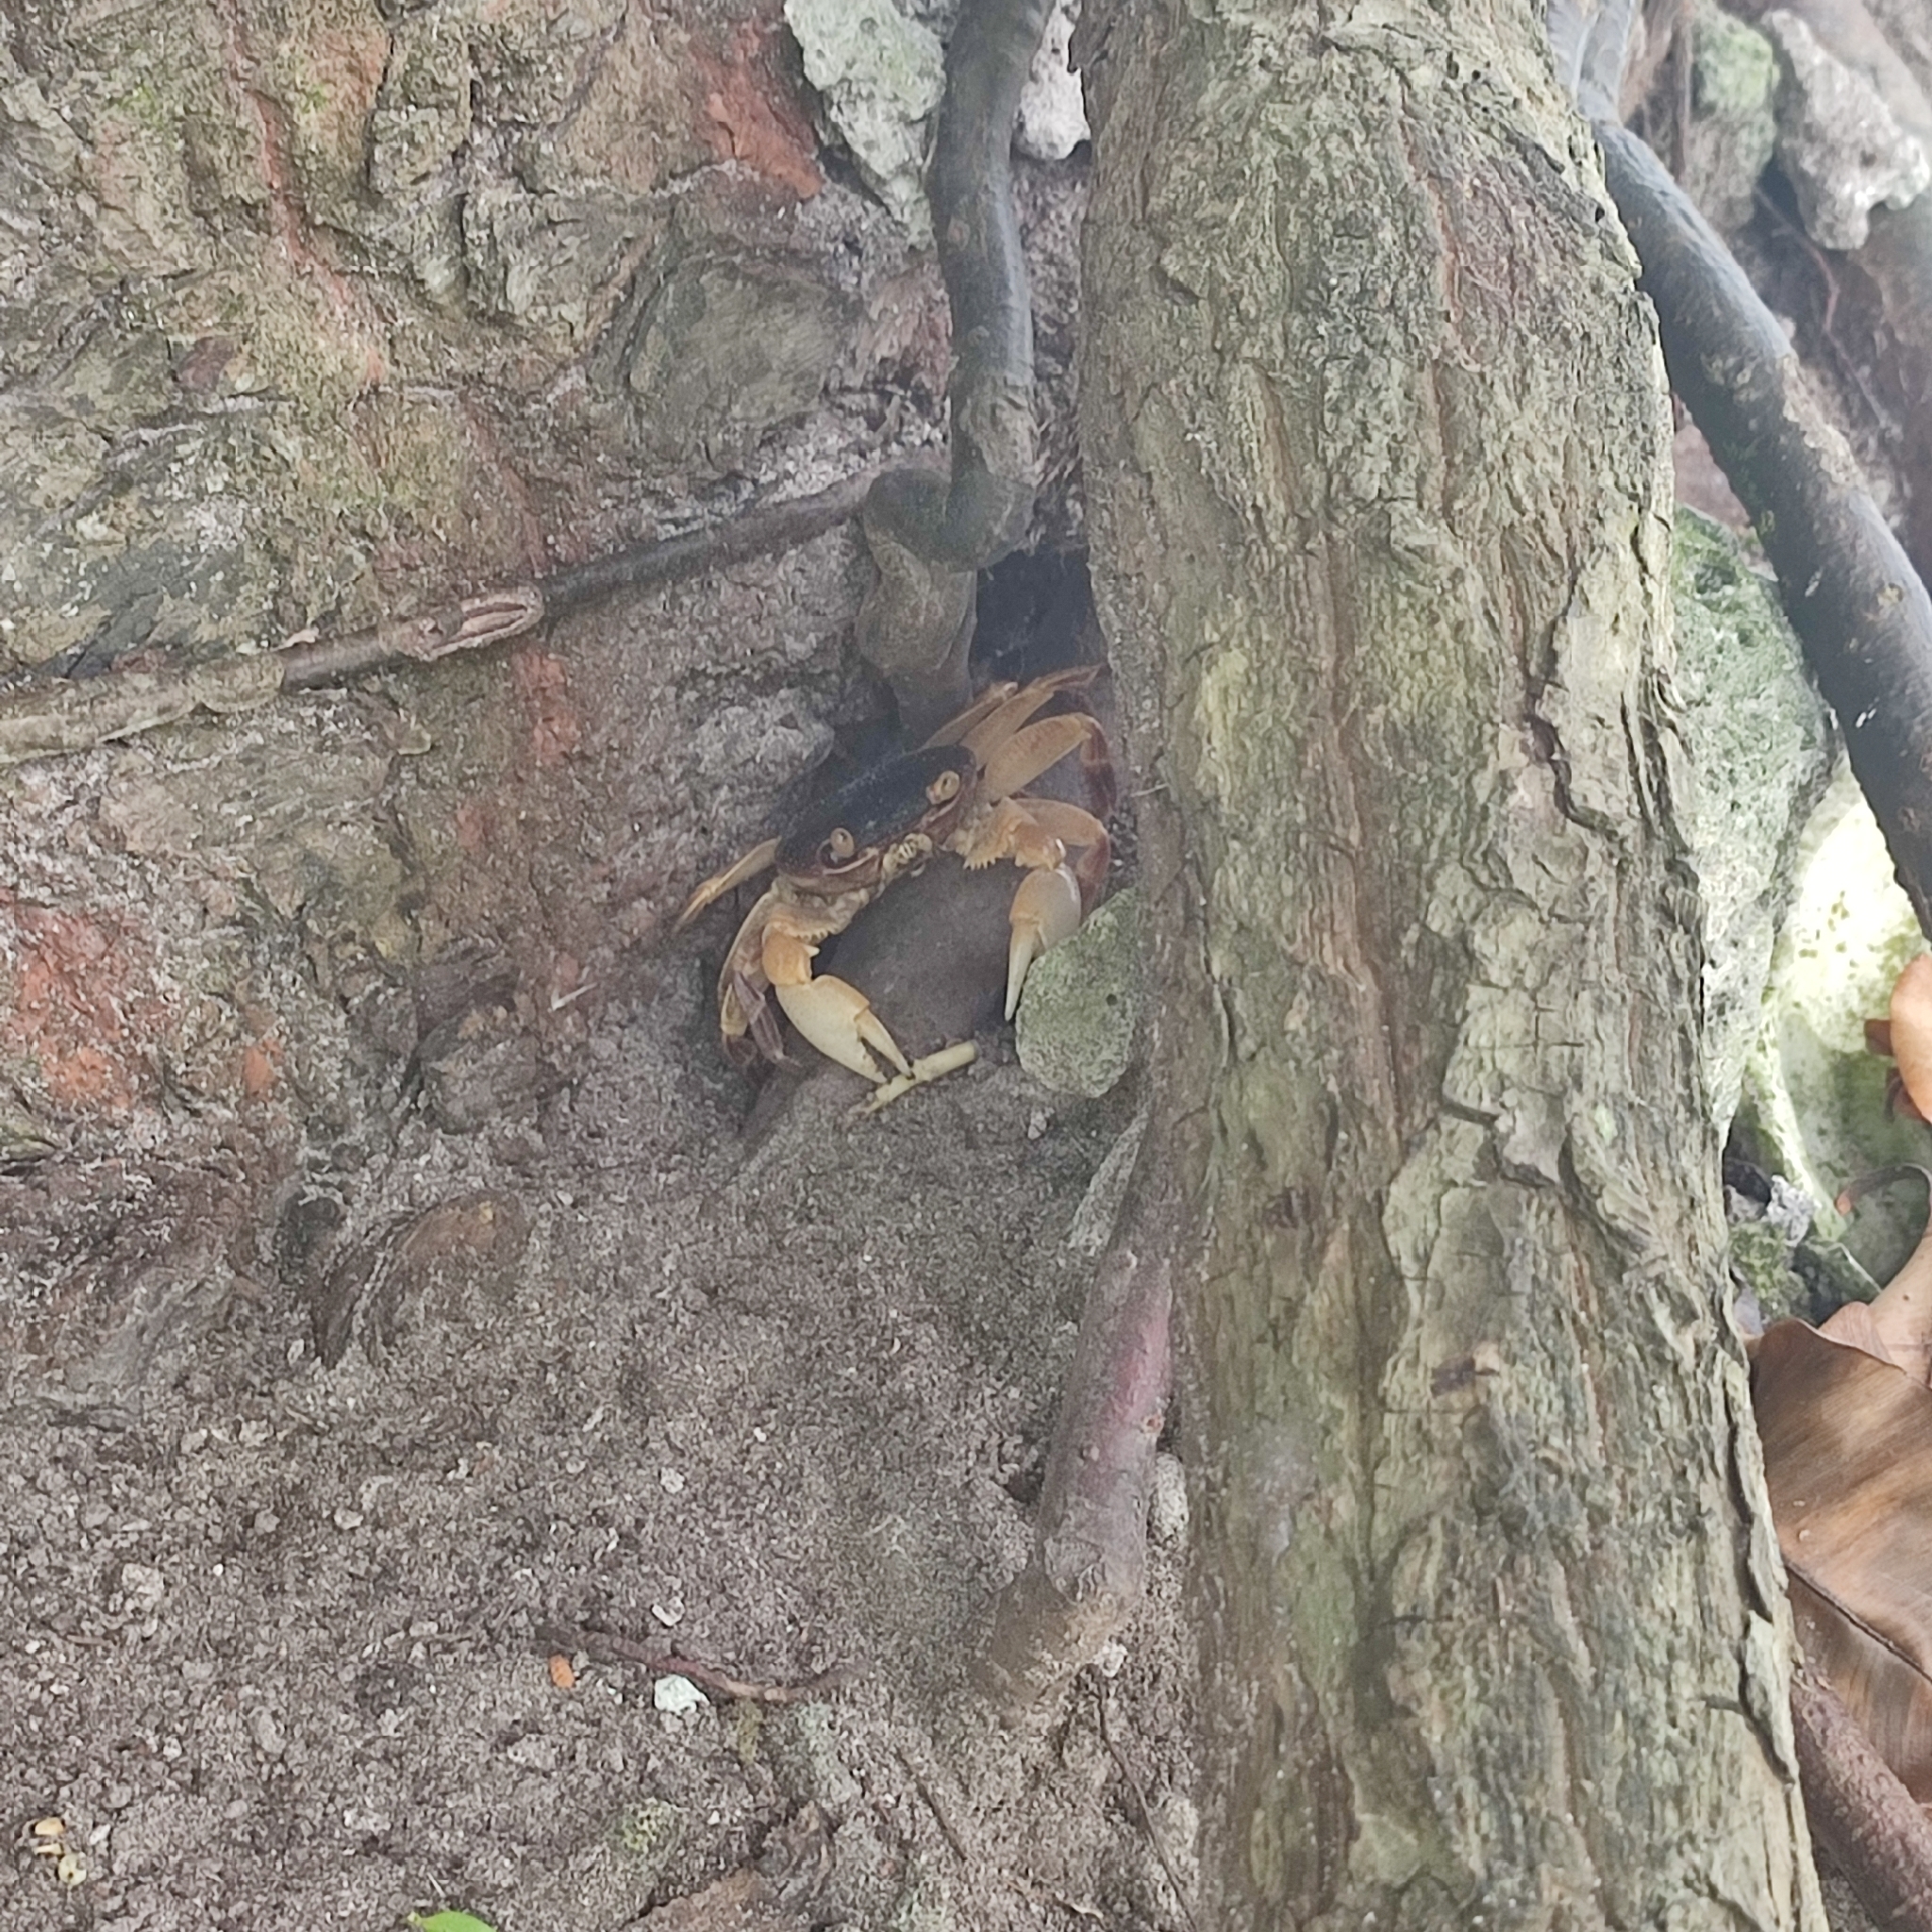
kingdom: Animalia
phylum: Arthropoda
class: Malacostraca
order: Decapoda
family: Grapsidae
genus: Geograpsus
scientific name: Geograpsus grayi
